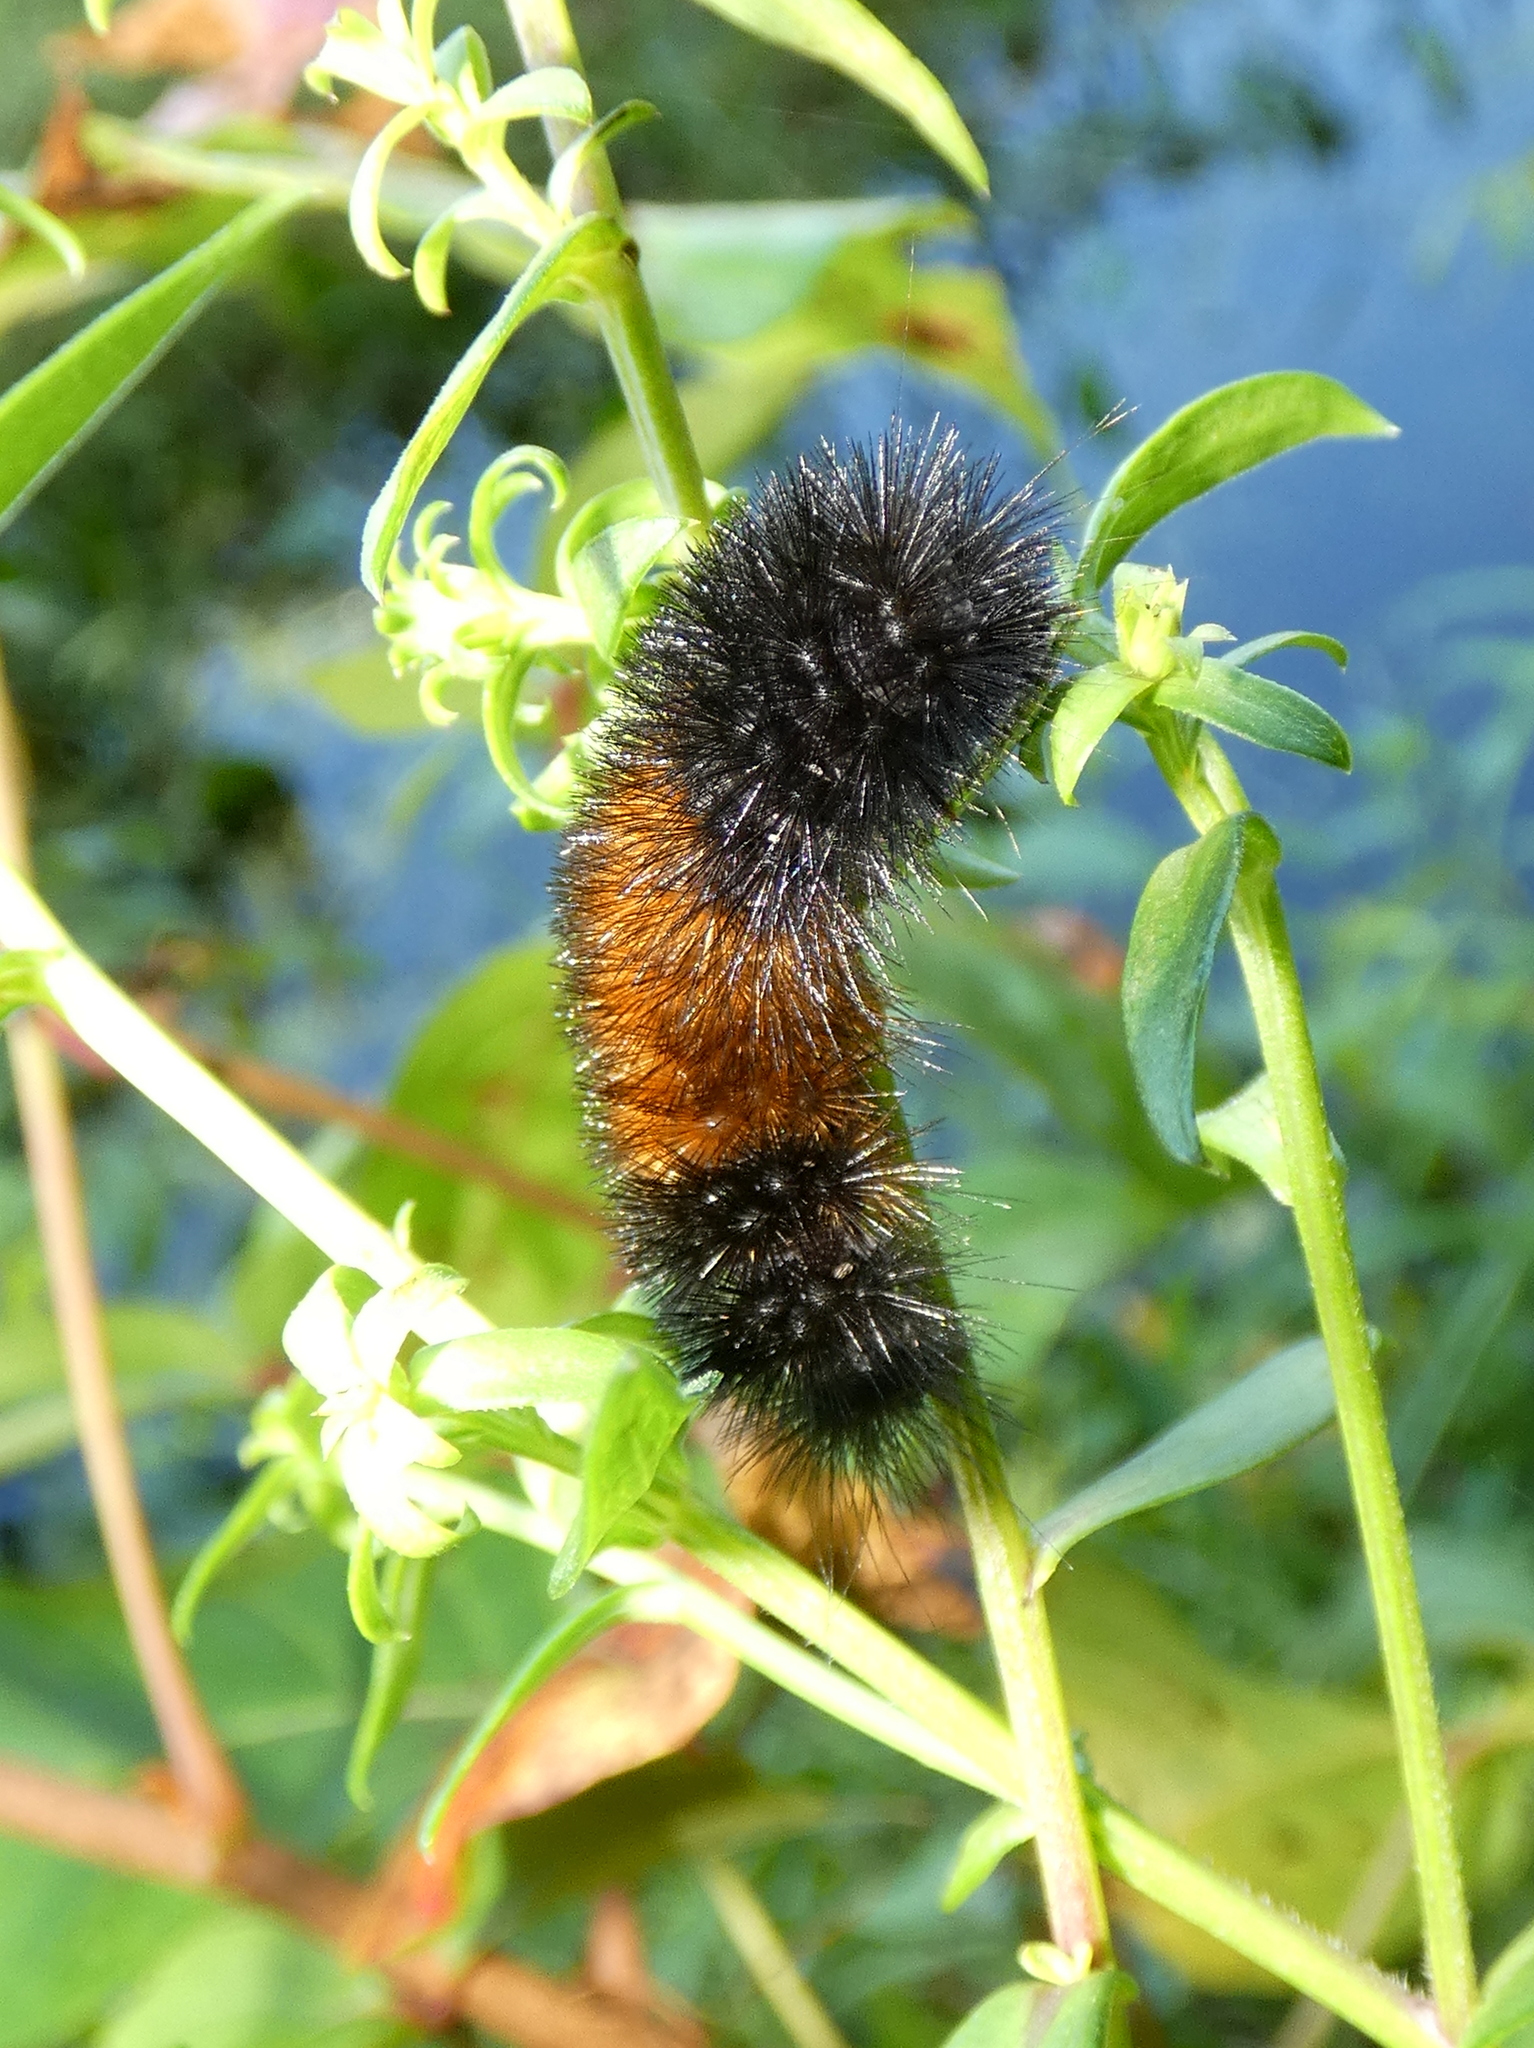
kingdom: Animalia
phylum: Arthropoda
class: Insecta
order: Lepidoptera
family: Erebidae
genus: Pyrrharctia
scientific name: Pyrrharctia isabella
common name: Isabella tiger moth
